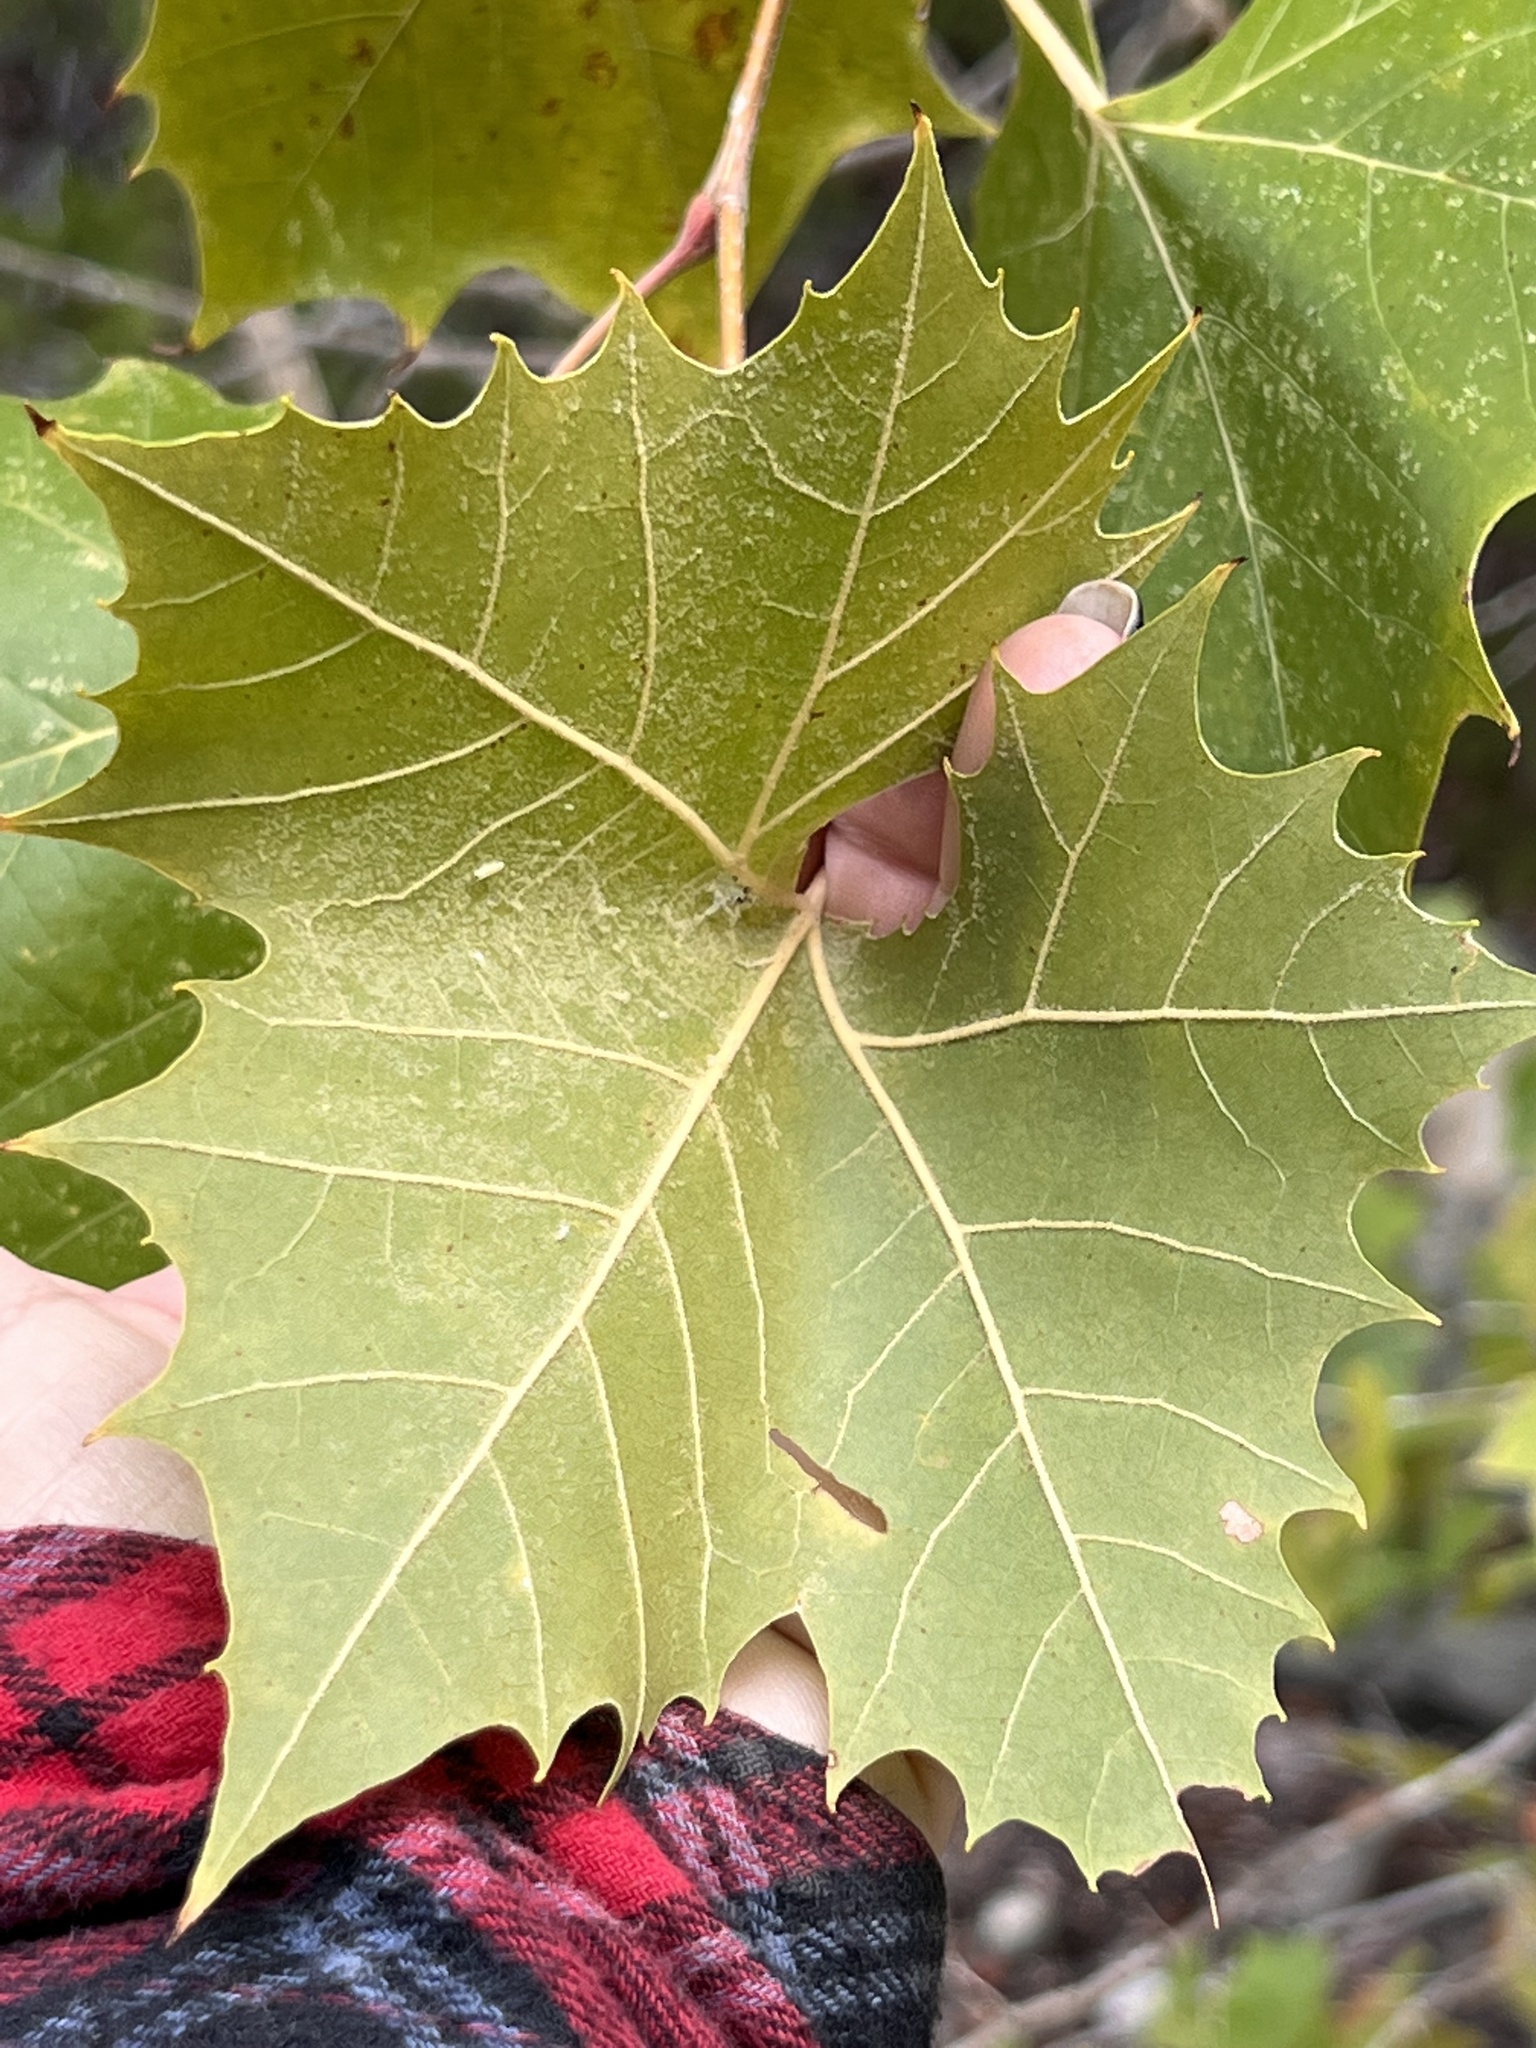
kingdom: Plantae
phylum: Tracheophyta
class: Magnoliopsida
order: Proteales
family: Platanaceae
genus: Platanus
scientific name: Platanus occidentalis
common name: American sycamore
